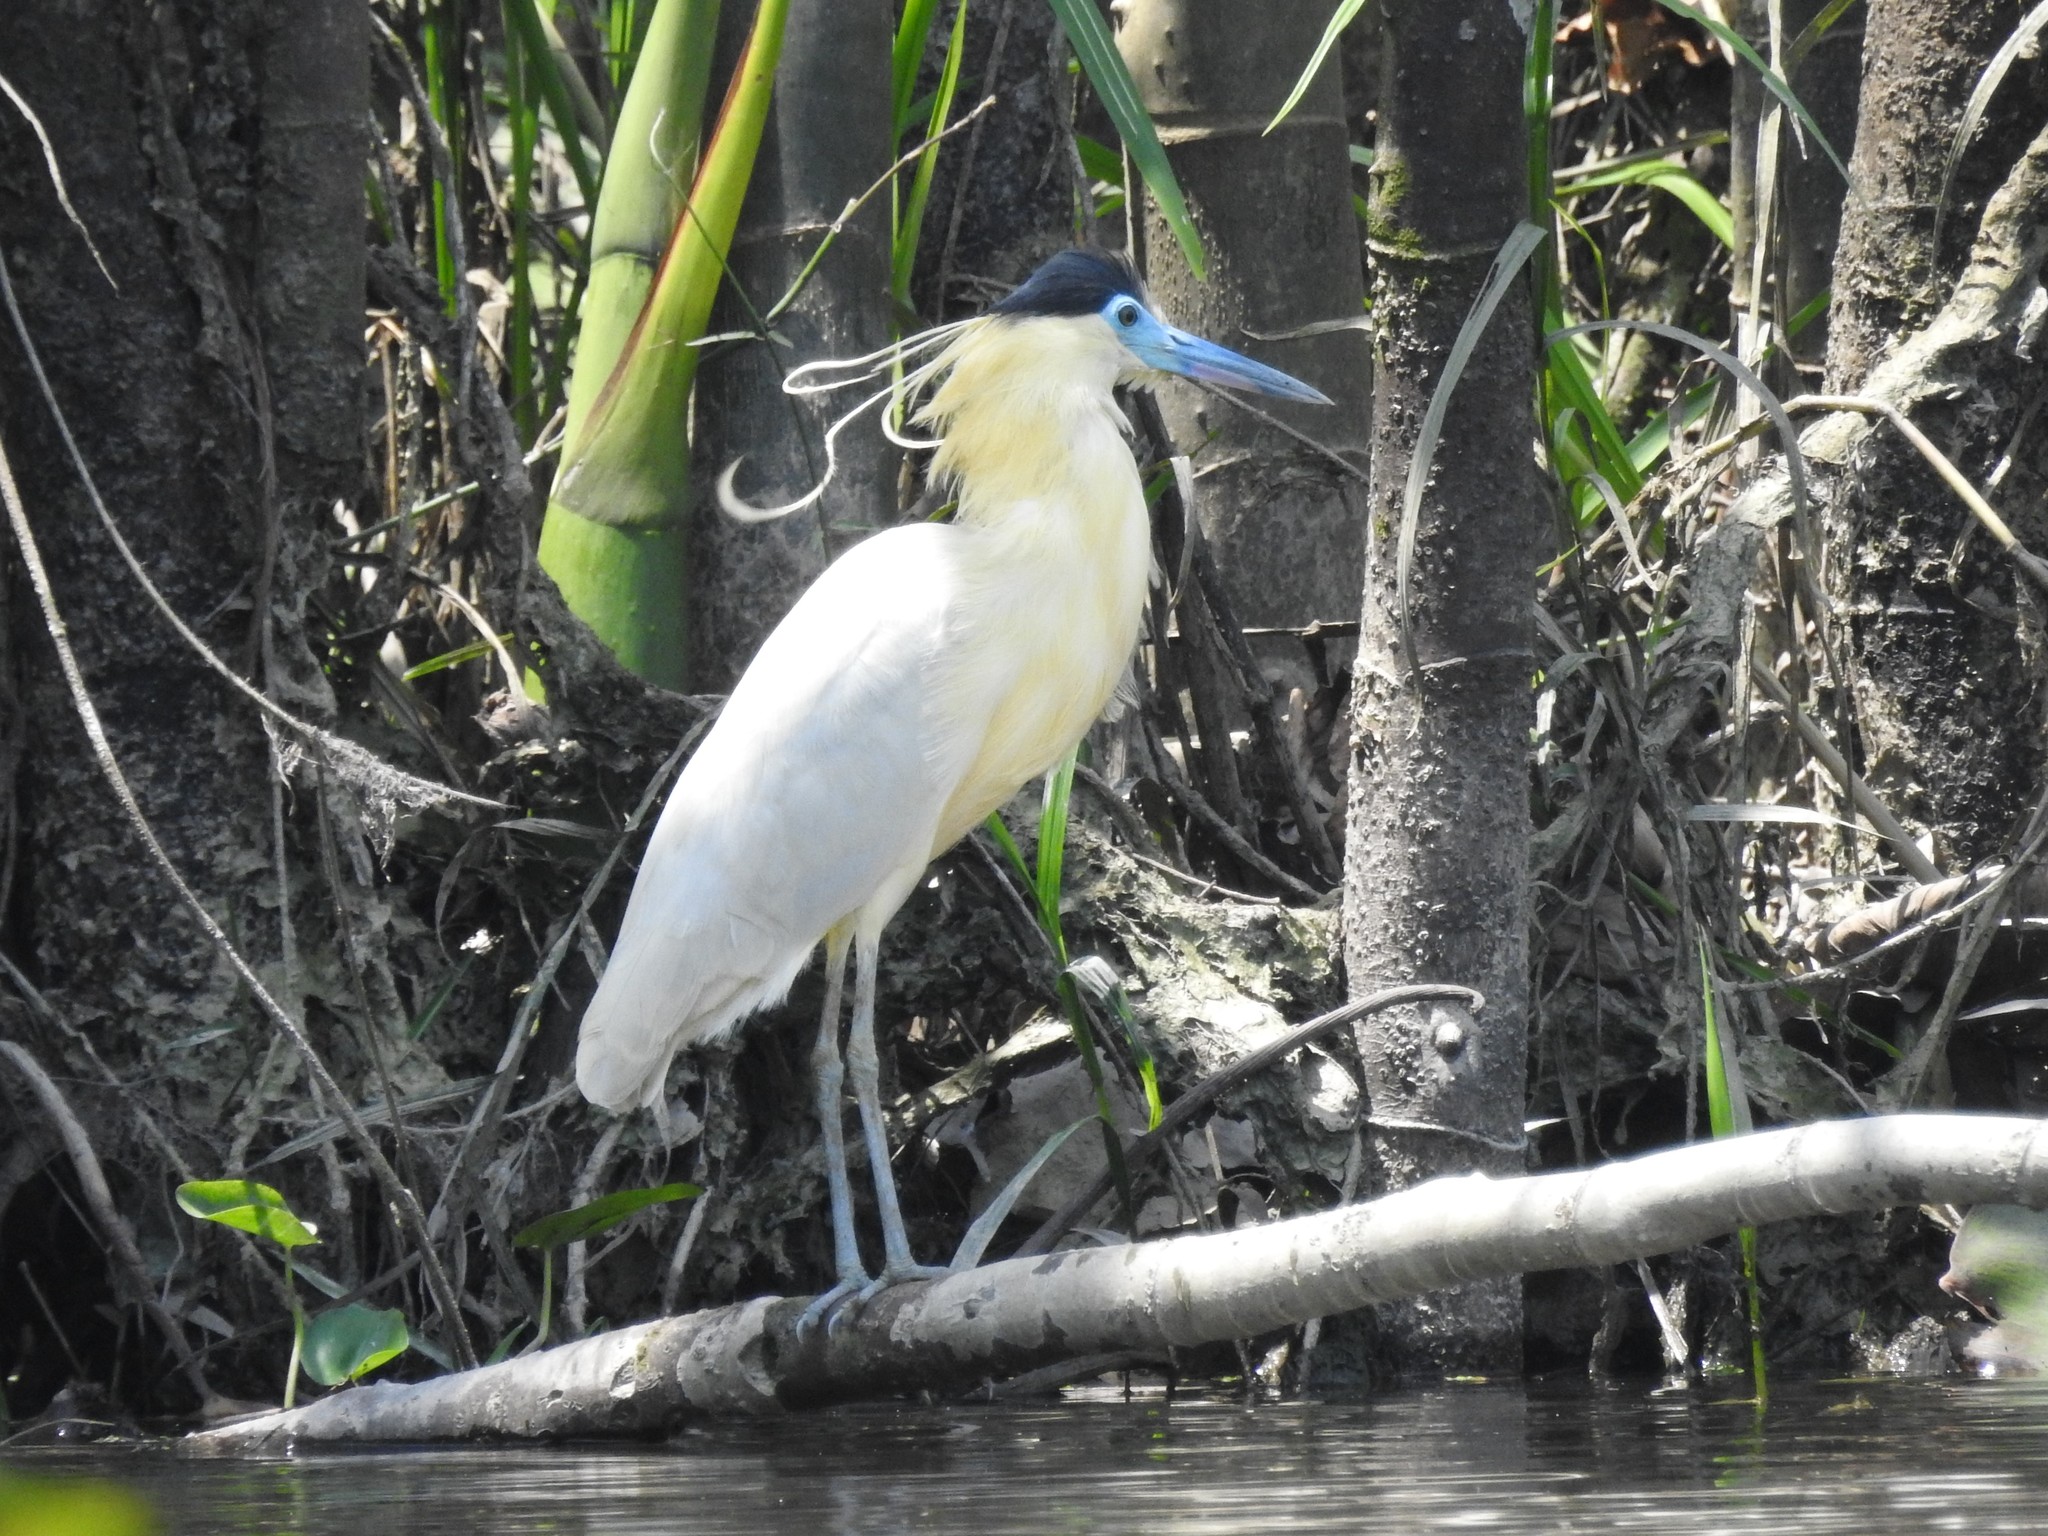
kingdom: Animalia
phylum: Chordata
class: Aves
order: Pelecaniformes
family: Ardeidae
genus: Pilherodius
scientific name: Pilherodius pileatus
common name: Capped heron
